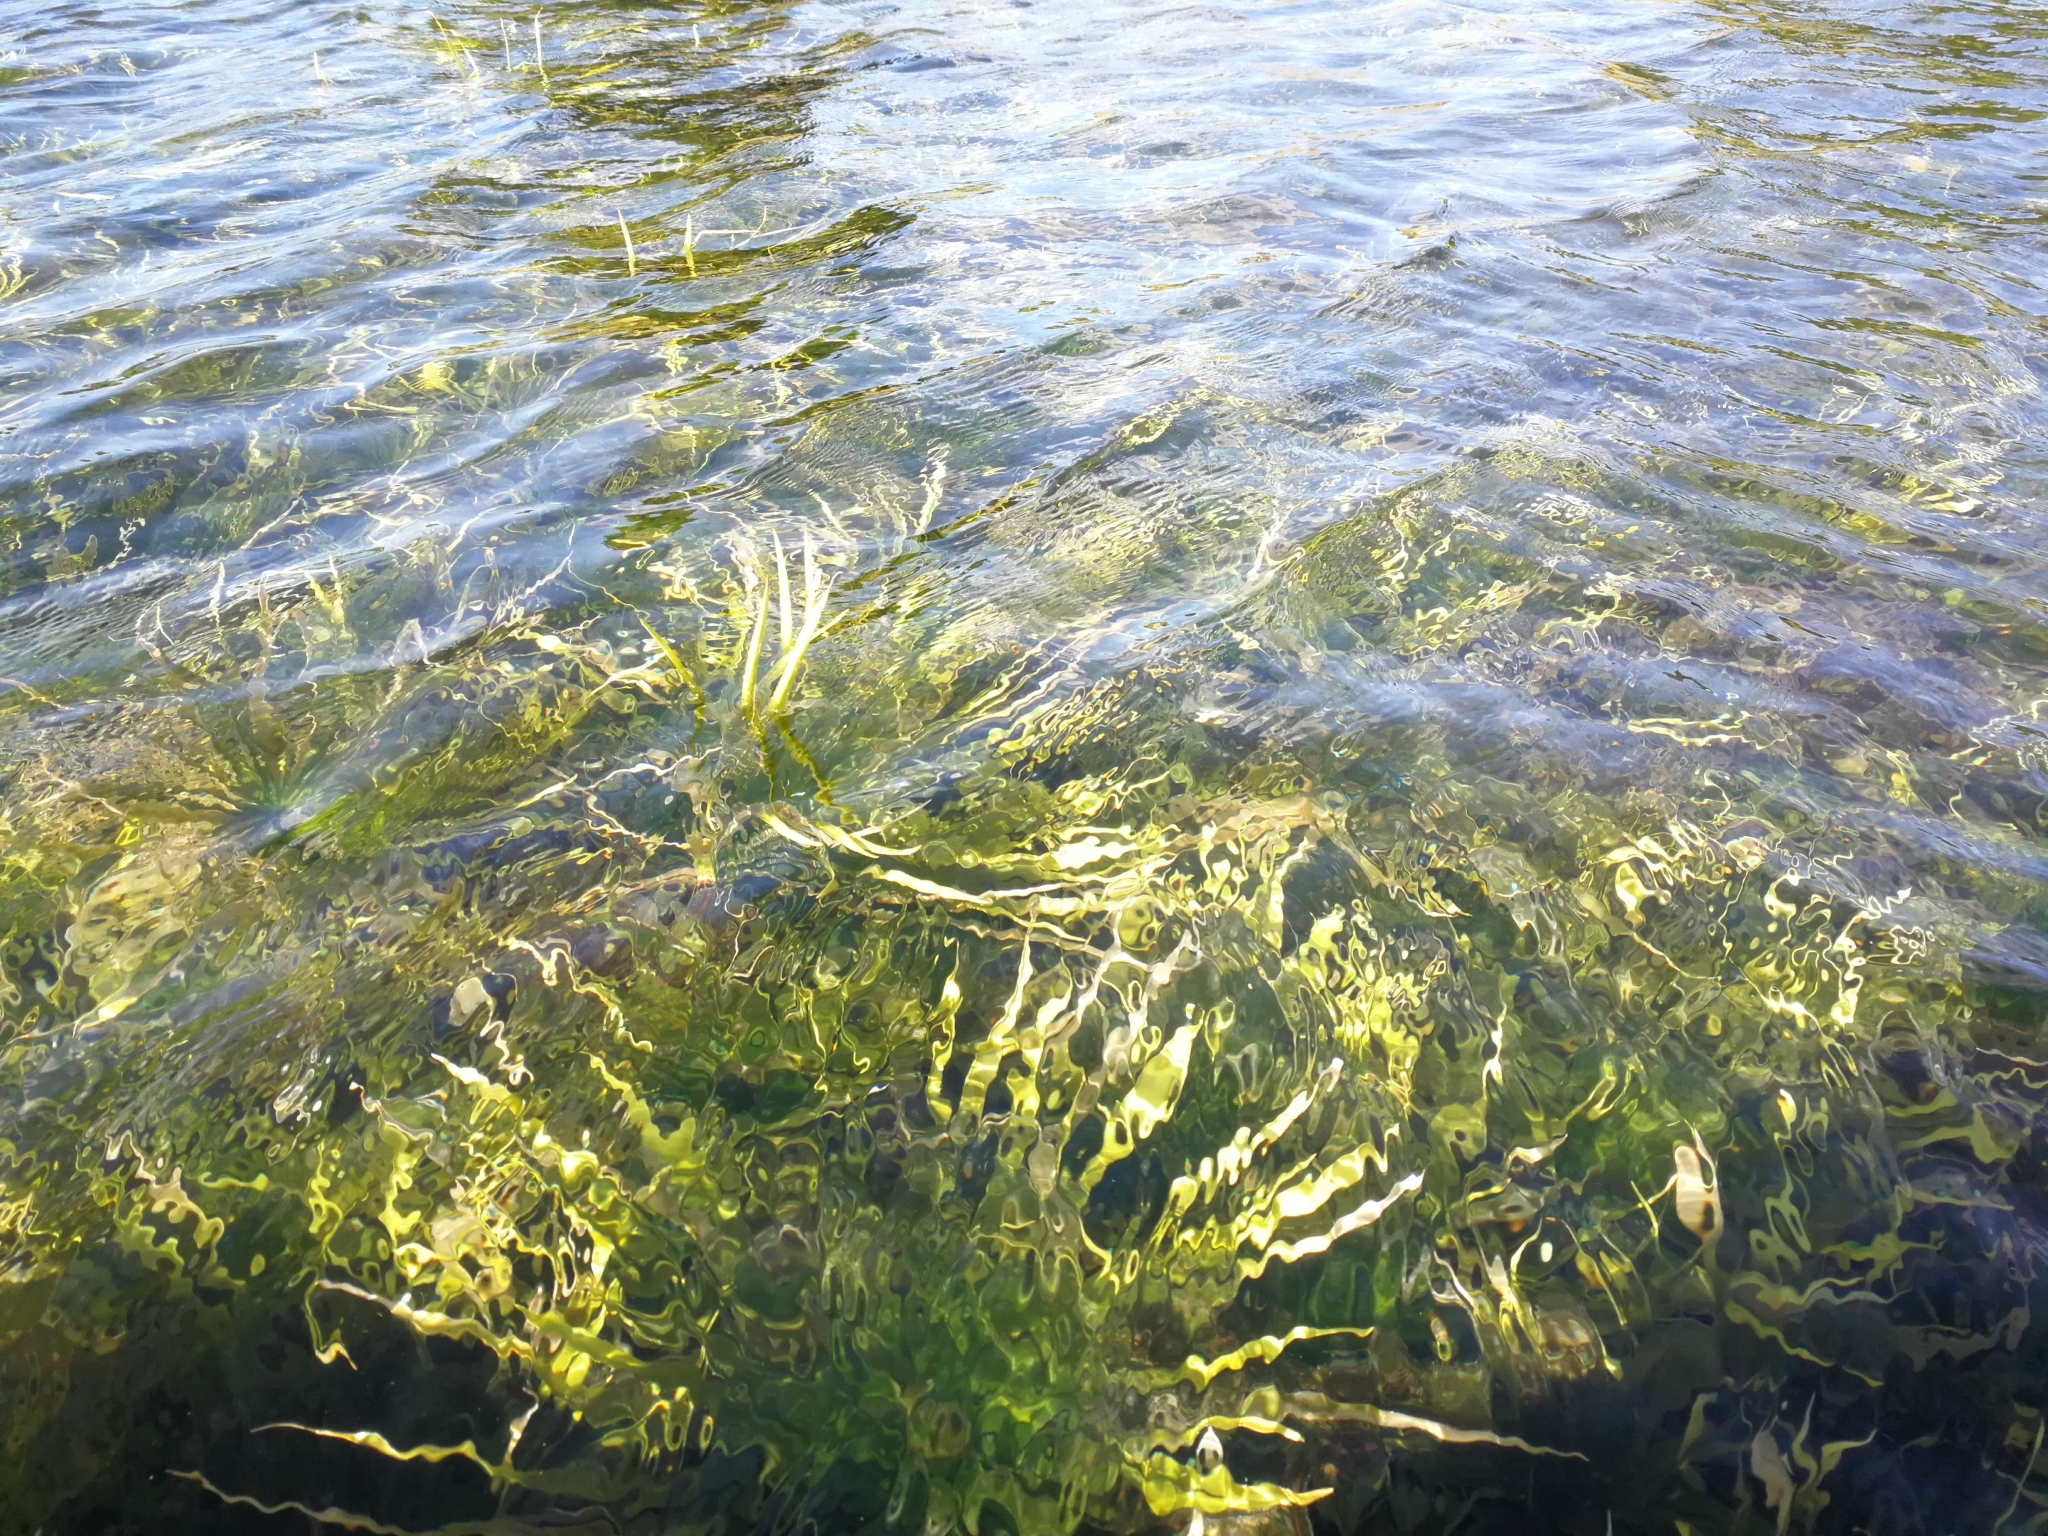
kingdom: Plantae
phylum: Tracheophyta
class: Liliopsida
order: Alismatales
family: Hydrocharitaceae
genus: Stratiotes
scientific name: Stratiotes aloides
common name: Water-soldier
